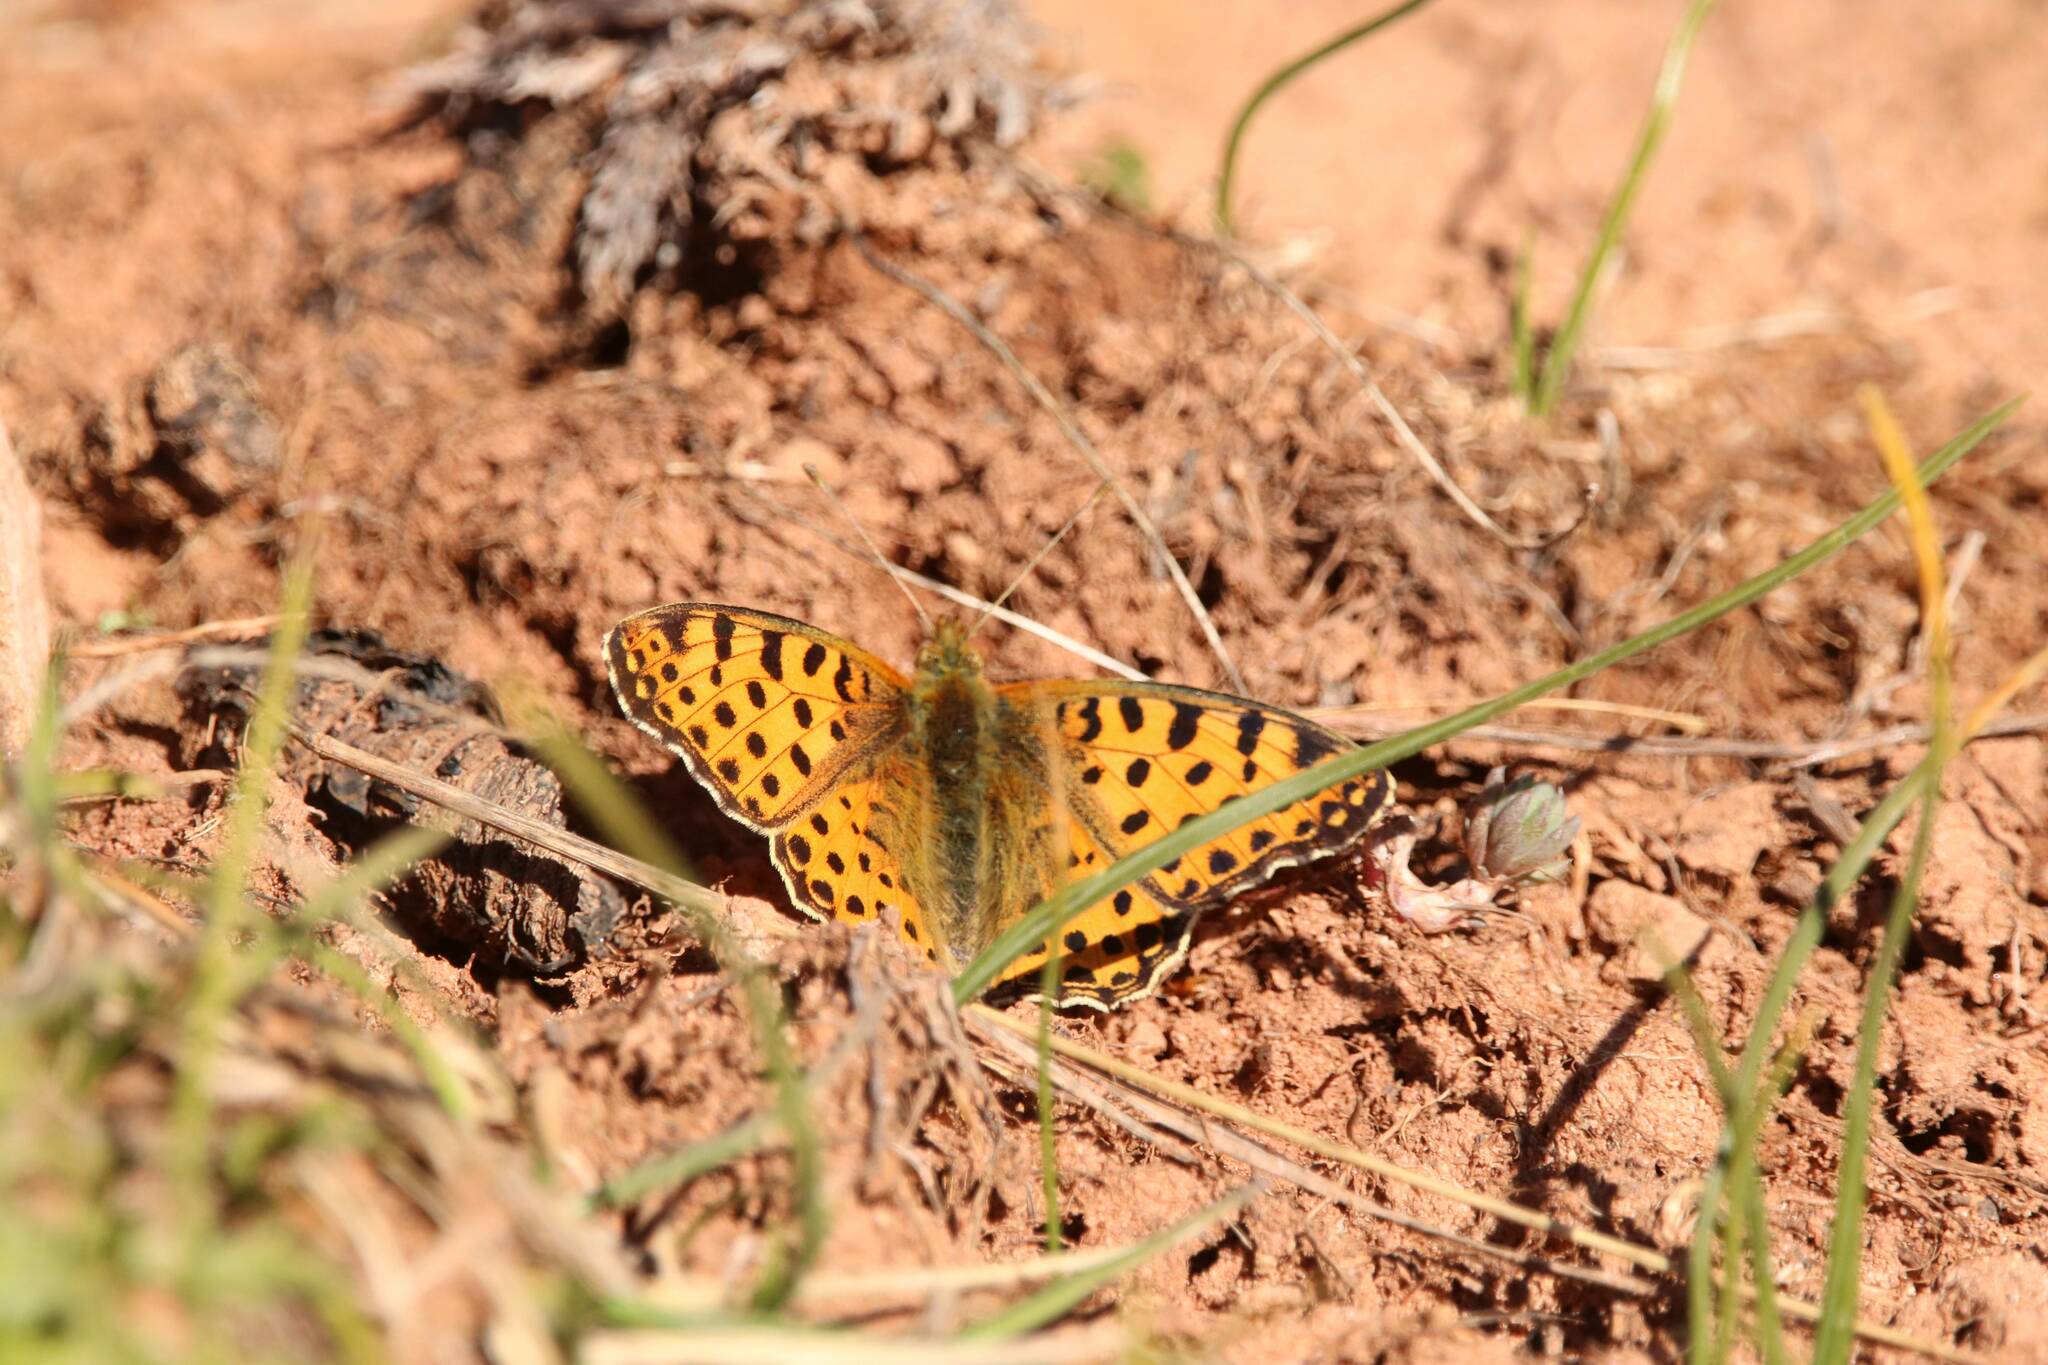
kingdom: Animalia
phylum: Arthropoda
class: Insecta
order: Lepidoptera
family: Nymphalidae
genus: Issoria
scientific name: Issoria lathonia
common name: Queen of spain fritillary
